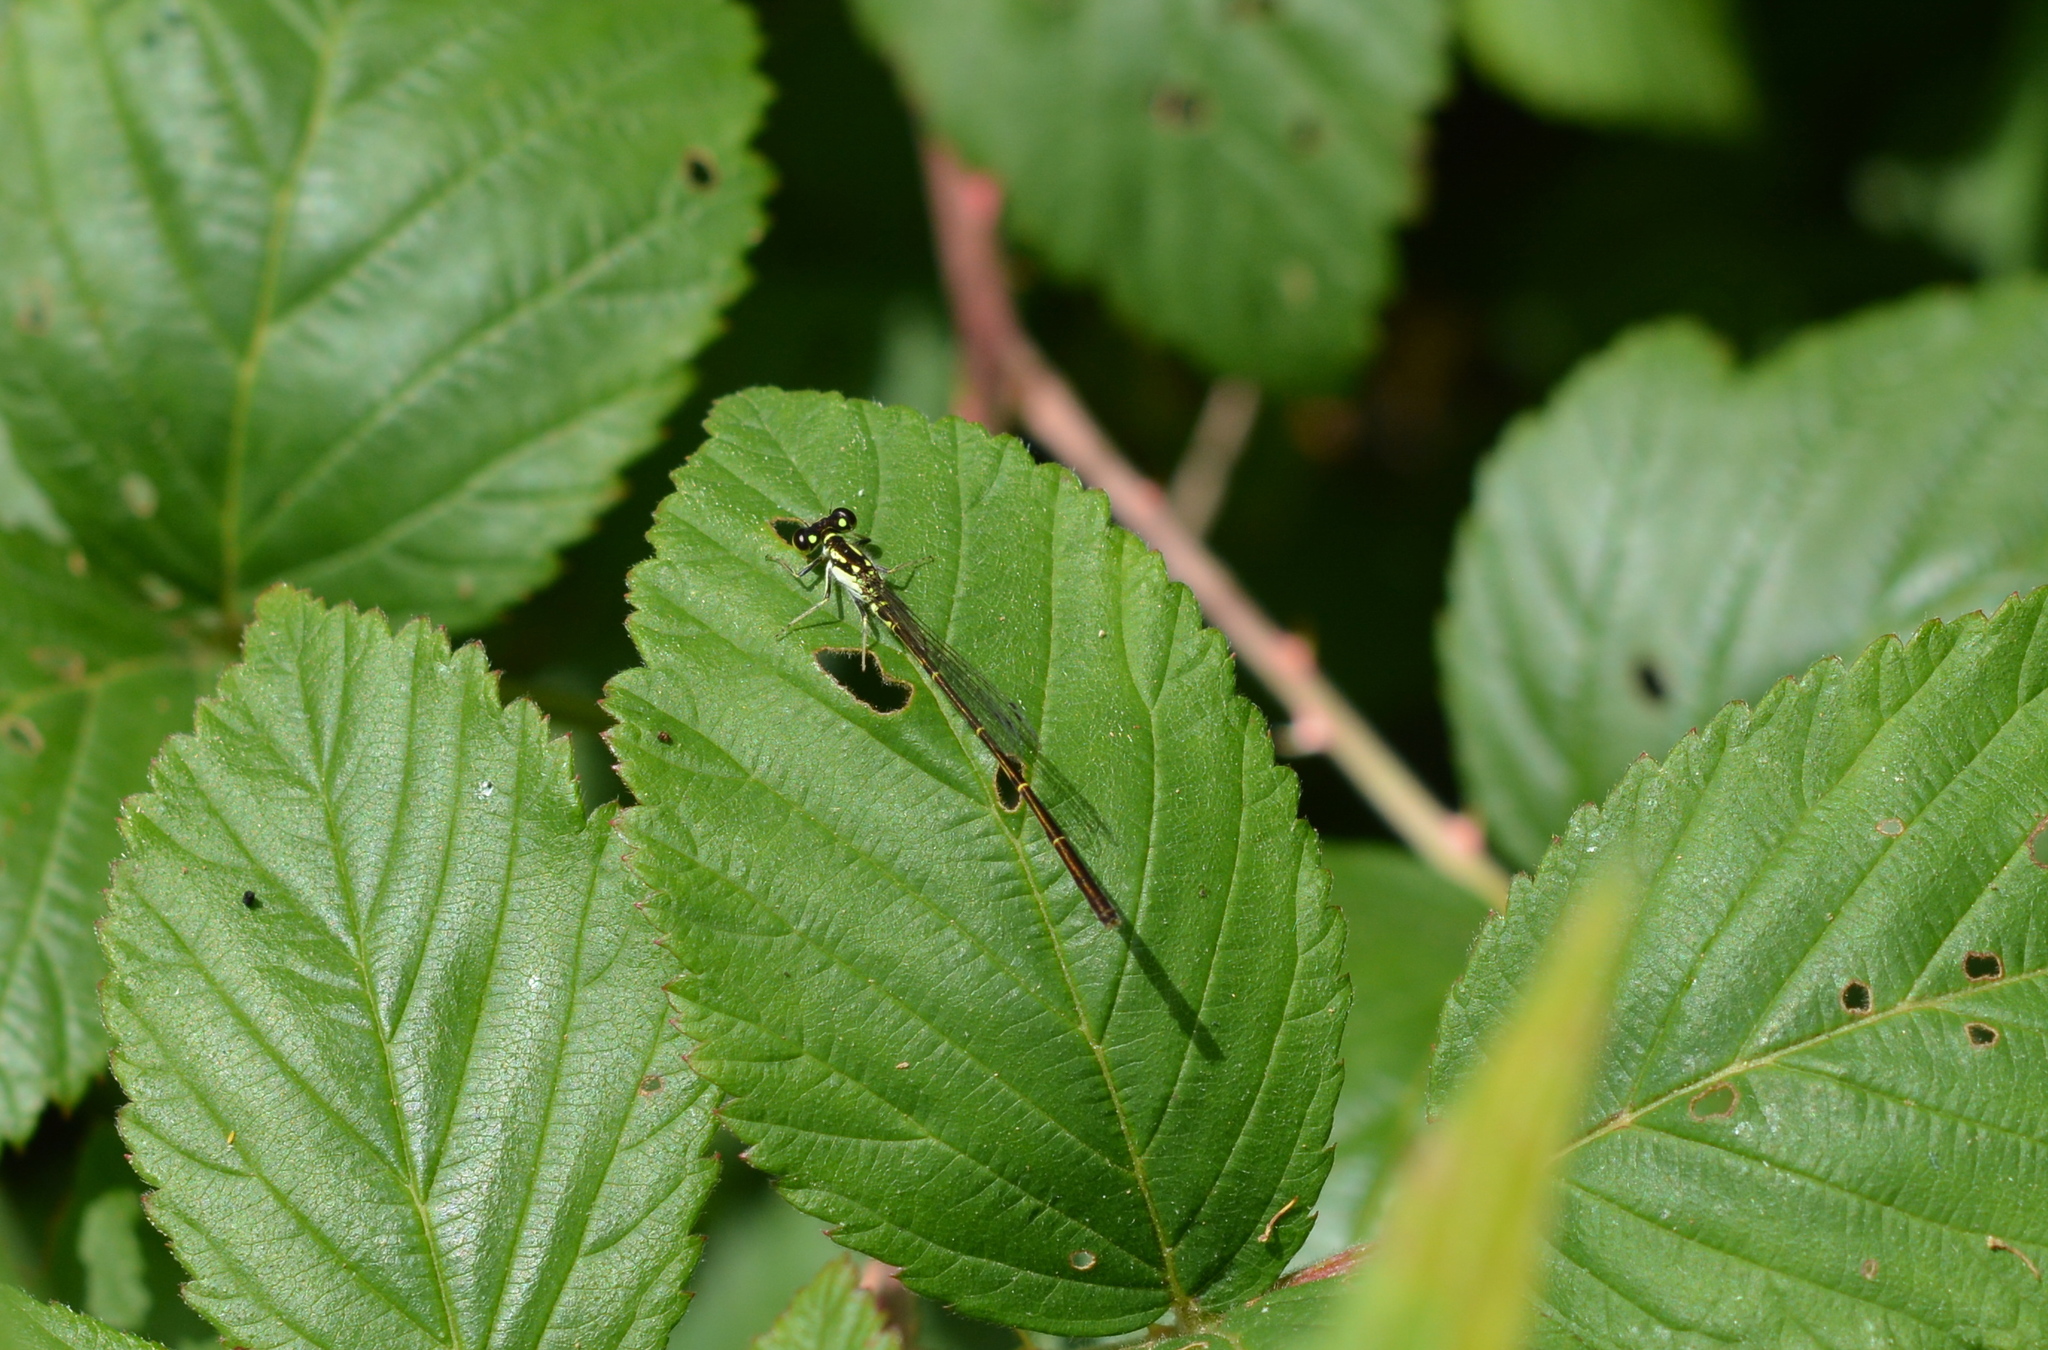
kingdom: Animalia
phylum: Arthropoda
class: Insecta
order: Odonata
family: Coenagrionidae
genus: Ischnura
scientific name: Ischnura posita
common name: Fragile forktail
